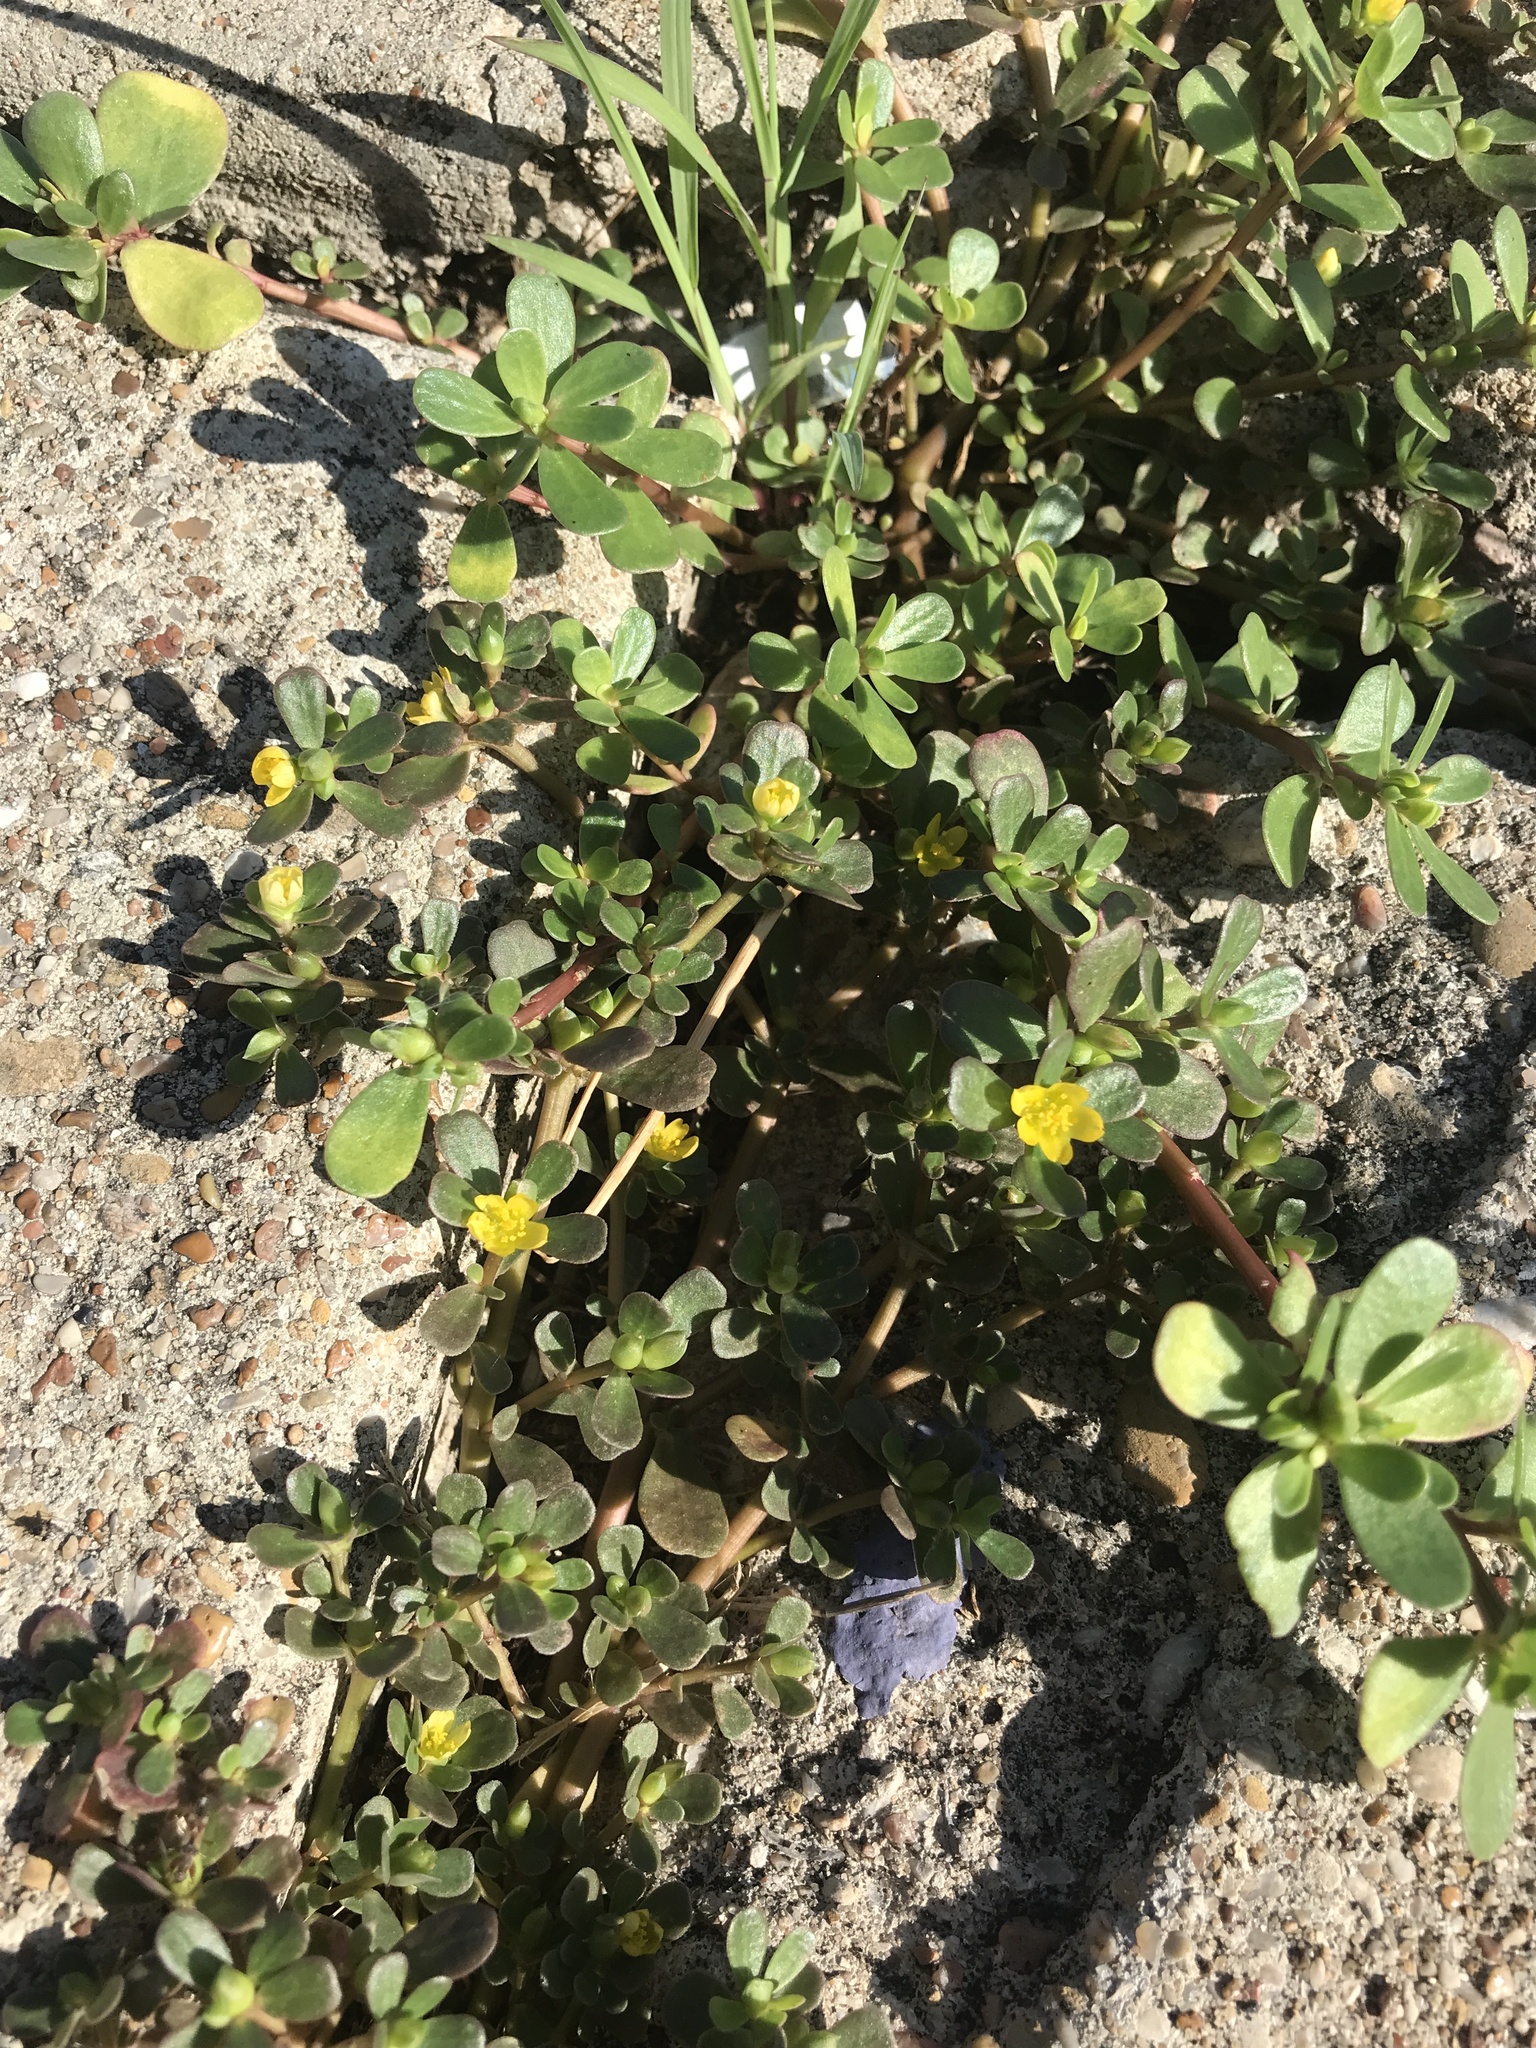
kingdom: Plantae
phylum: Tracheophyta
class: Magnoliopsida
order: Caryophyllales
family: Portulacaceae
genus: Portulaca
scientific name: Portulaca oleracea
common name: Common purslane
